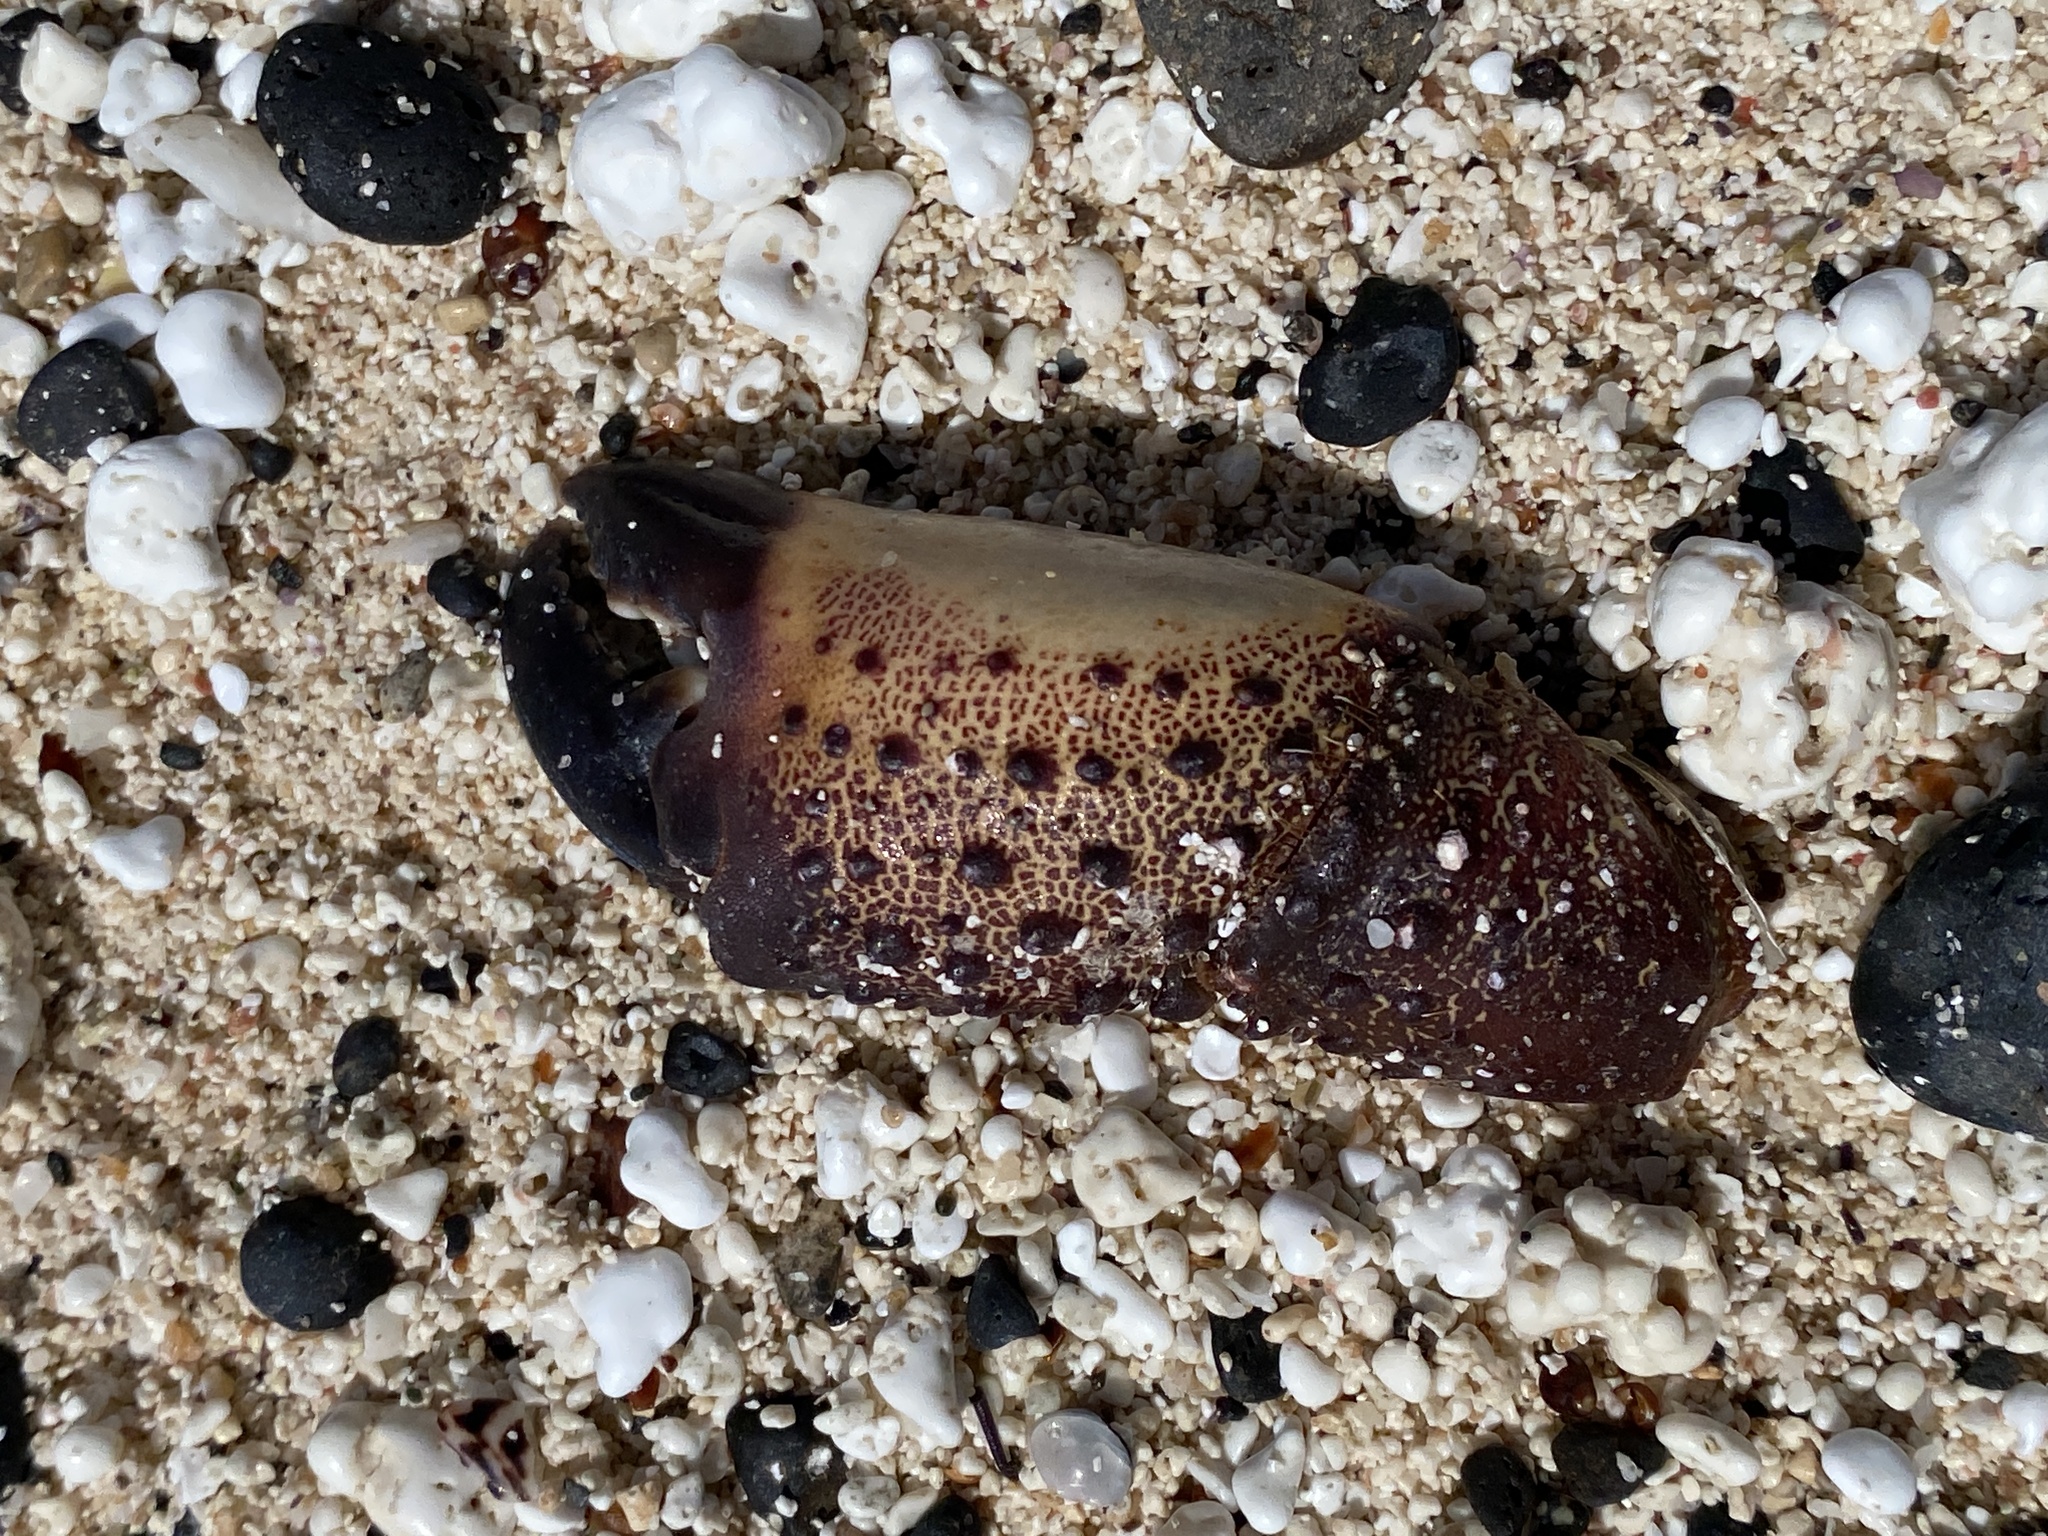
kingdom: Animalia
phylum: Arthropoda
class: Malacostraca
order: Decapoda
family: Eriphiidae
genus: Eriphia
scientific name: Eriphia verrucosa
